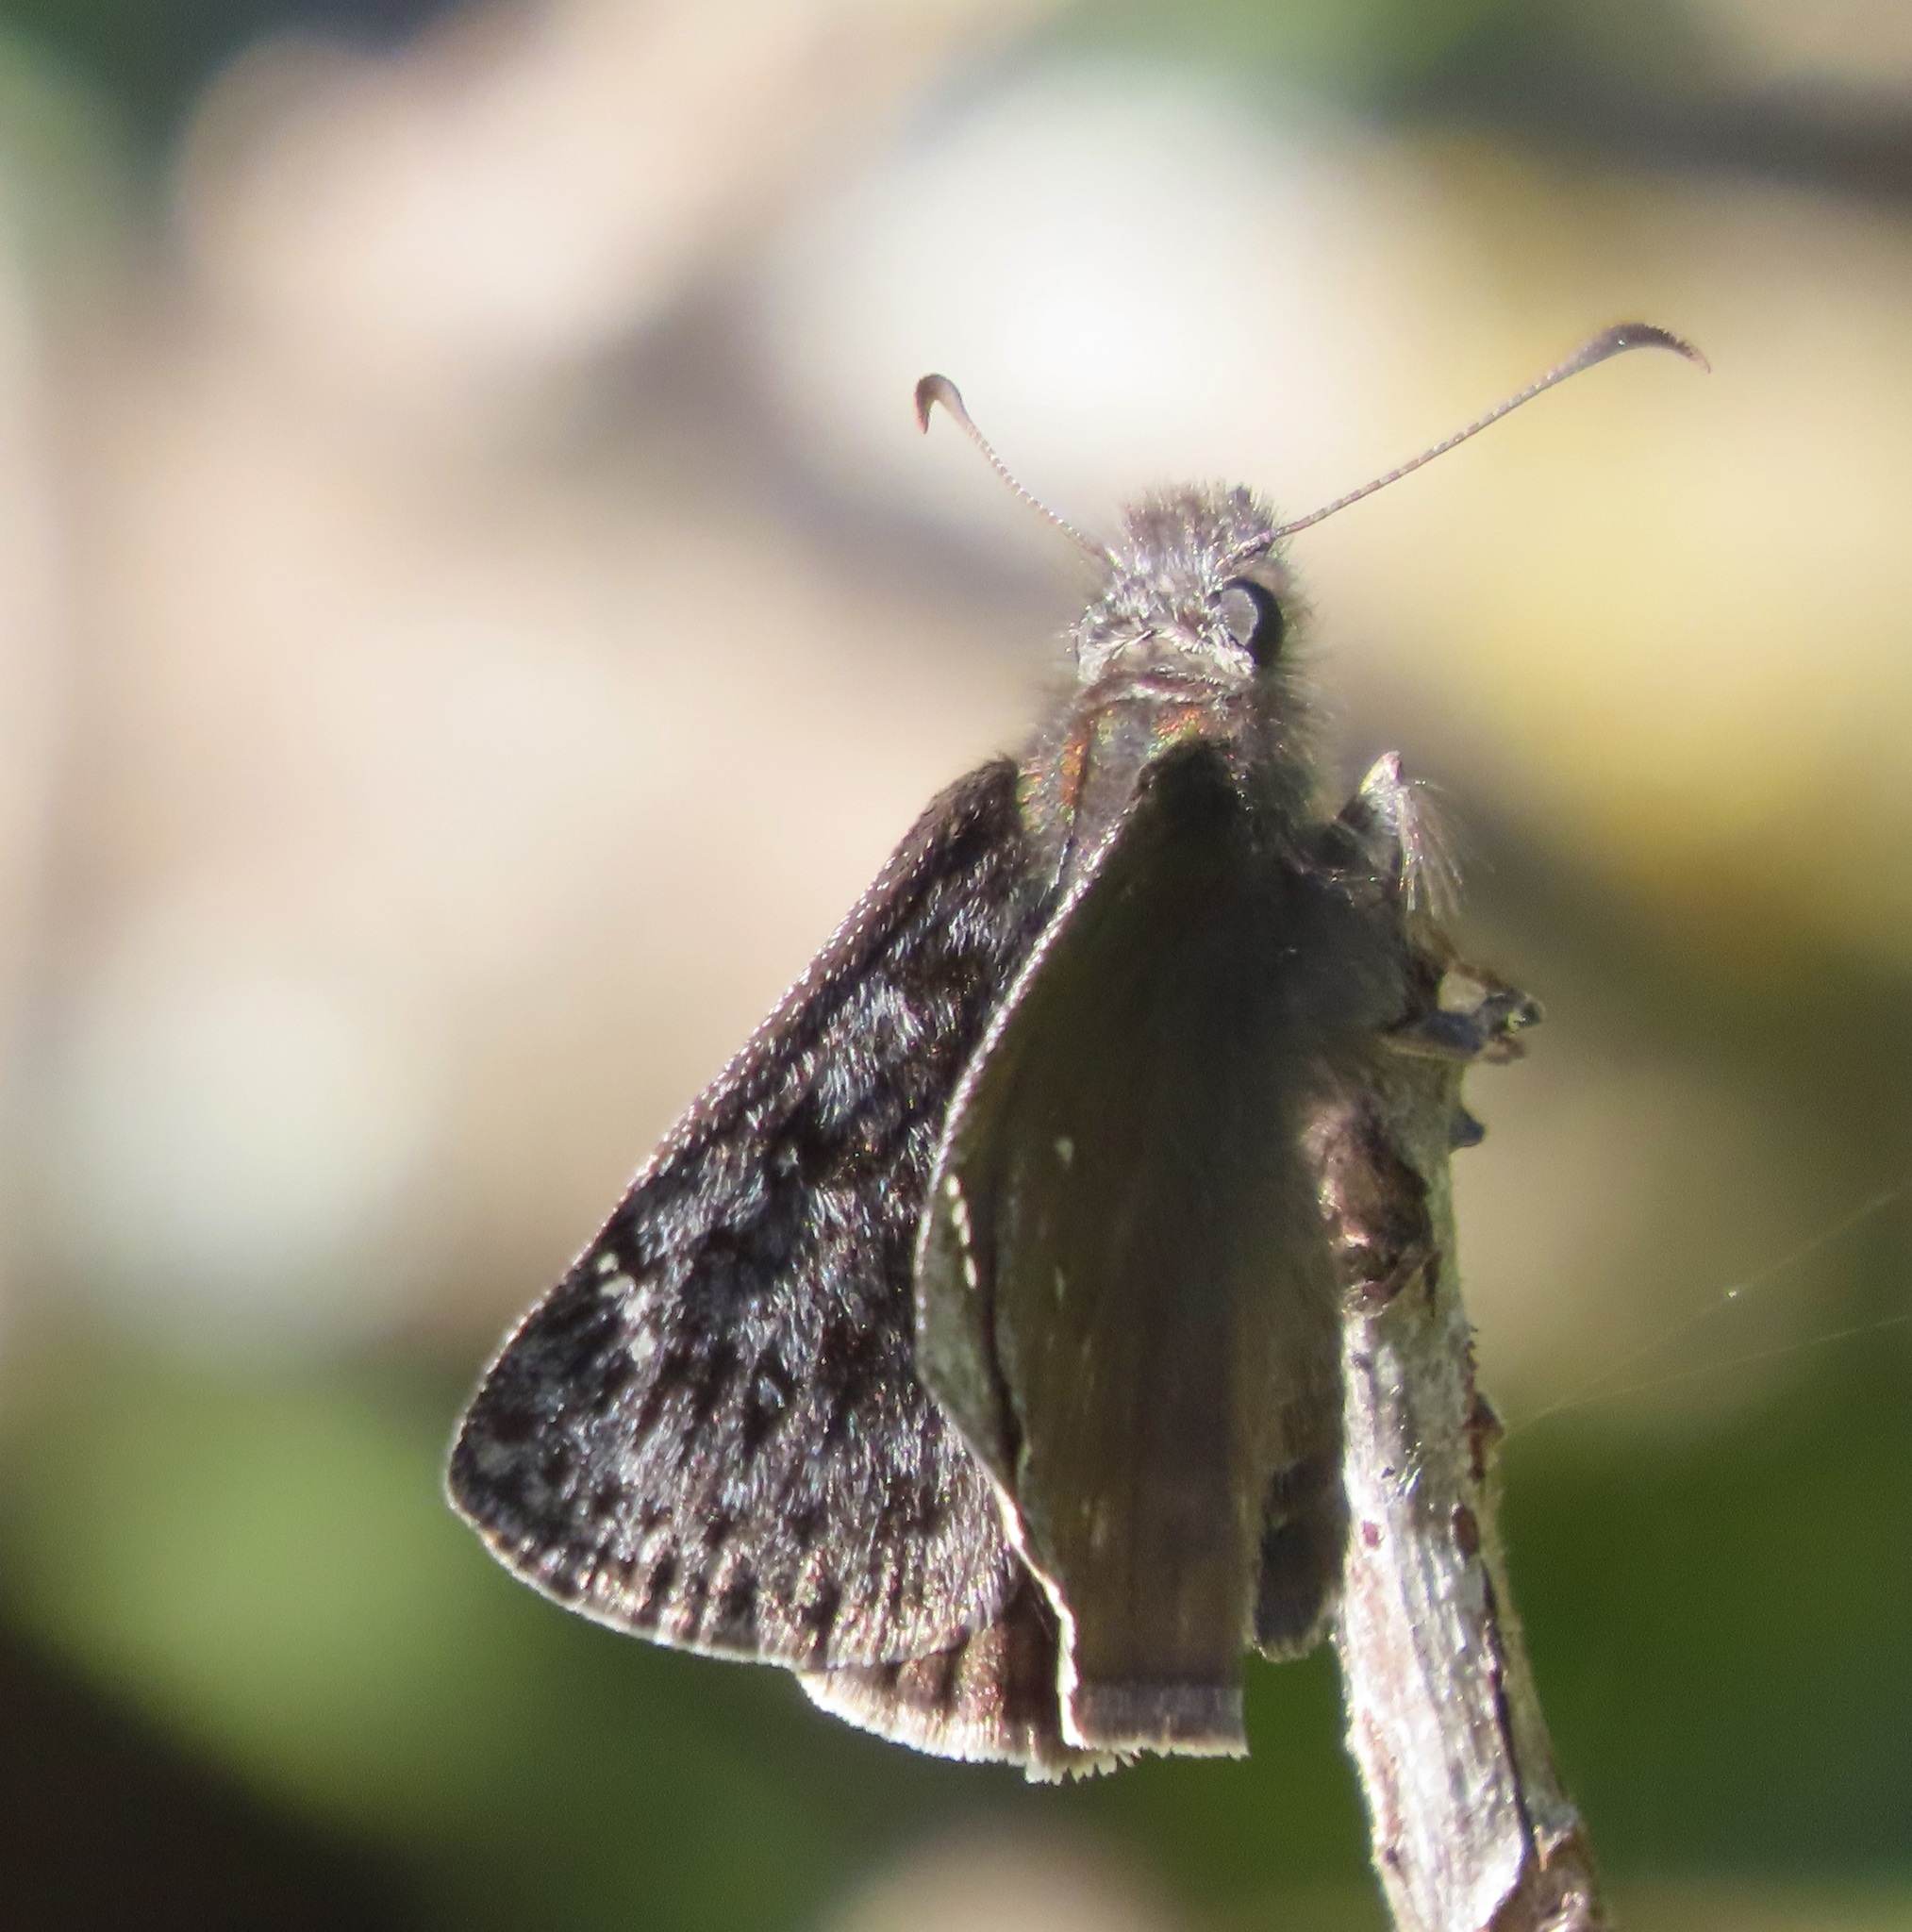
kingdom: Animalia
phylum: Arthropoda
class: Insecta
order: Lepidoptera
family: Hesperiidae
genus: Erynnis
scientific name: Erynnis propertius
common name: Propertius duskywing
